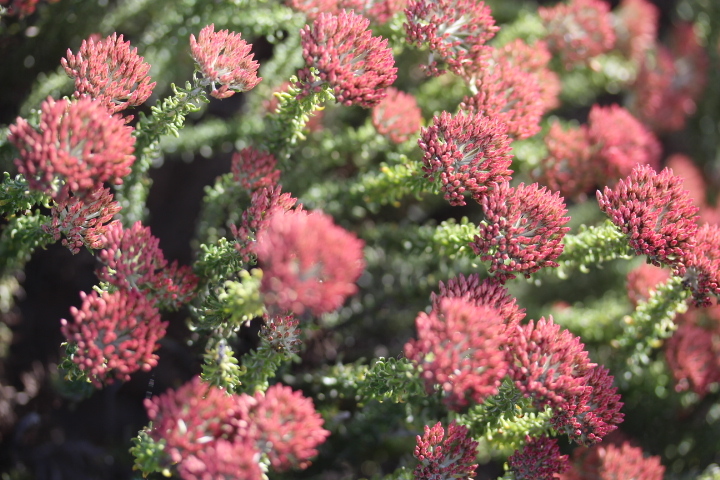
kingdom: Plantae
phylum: Tracheophyta
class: Magnoliopsida
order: Asterales
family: Asteraceae
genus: Metalasia
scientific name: Metalasia muricata
